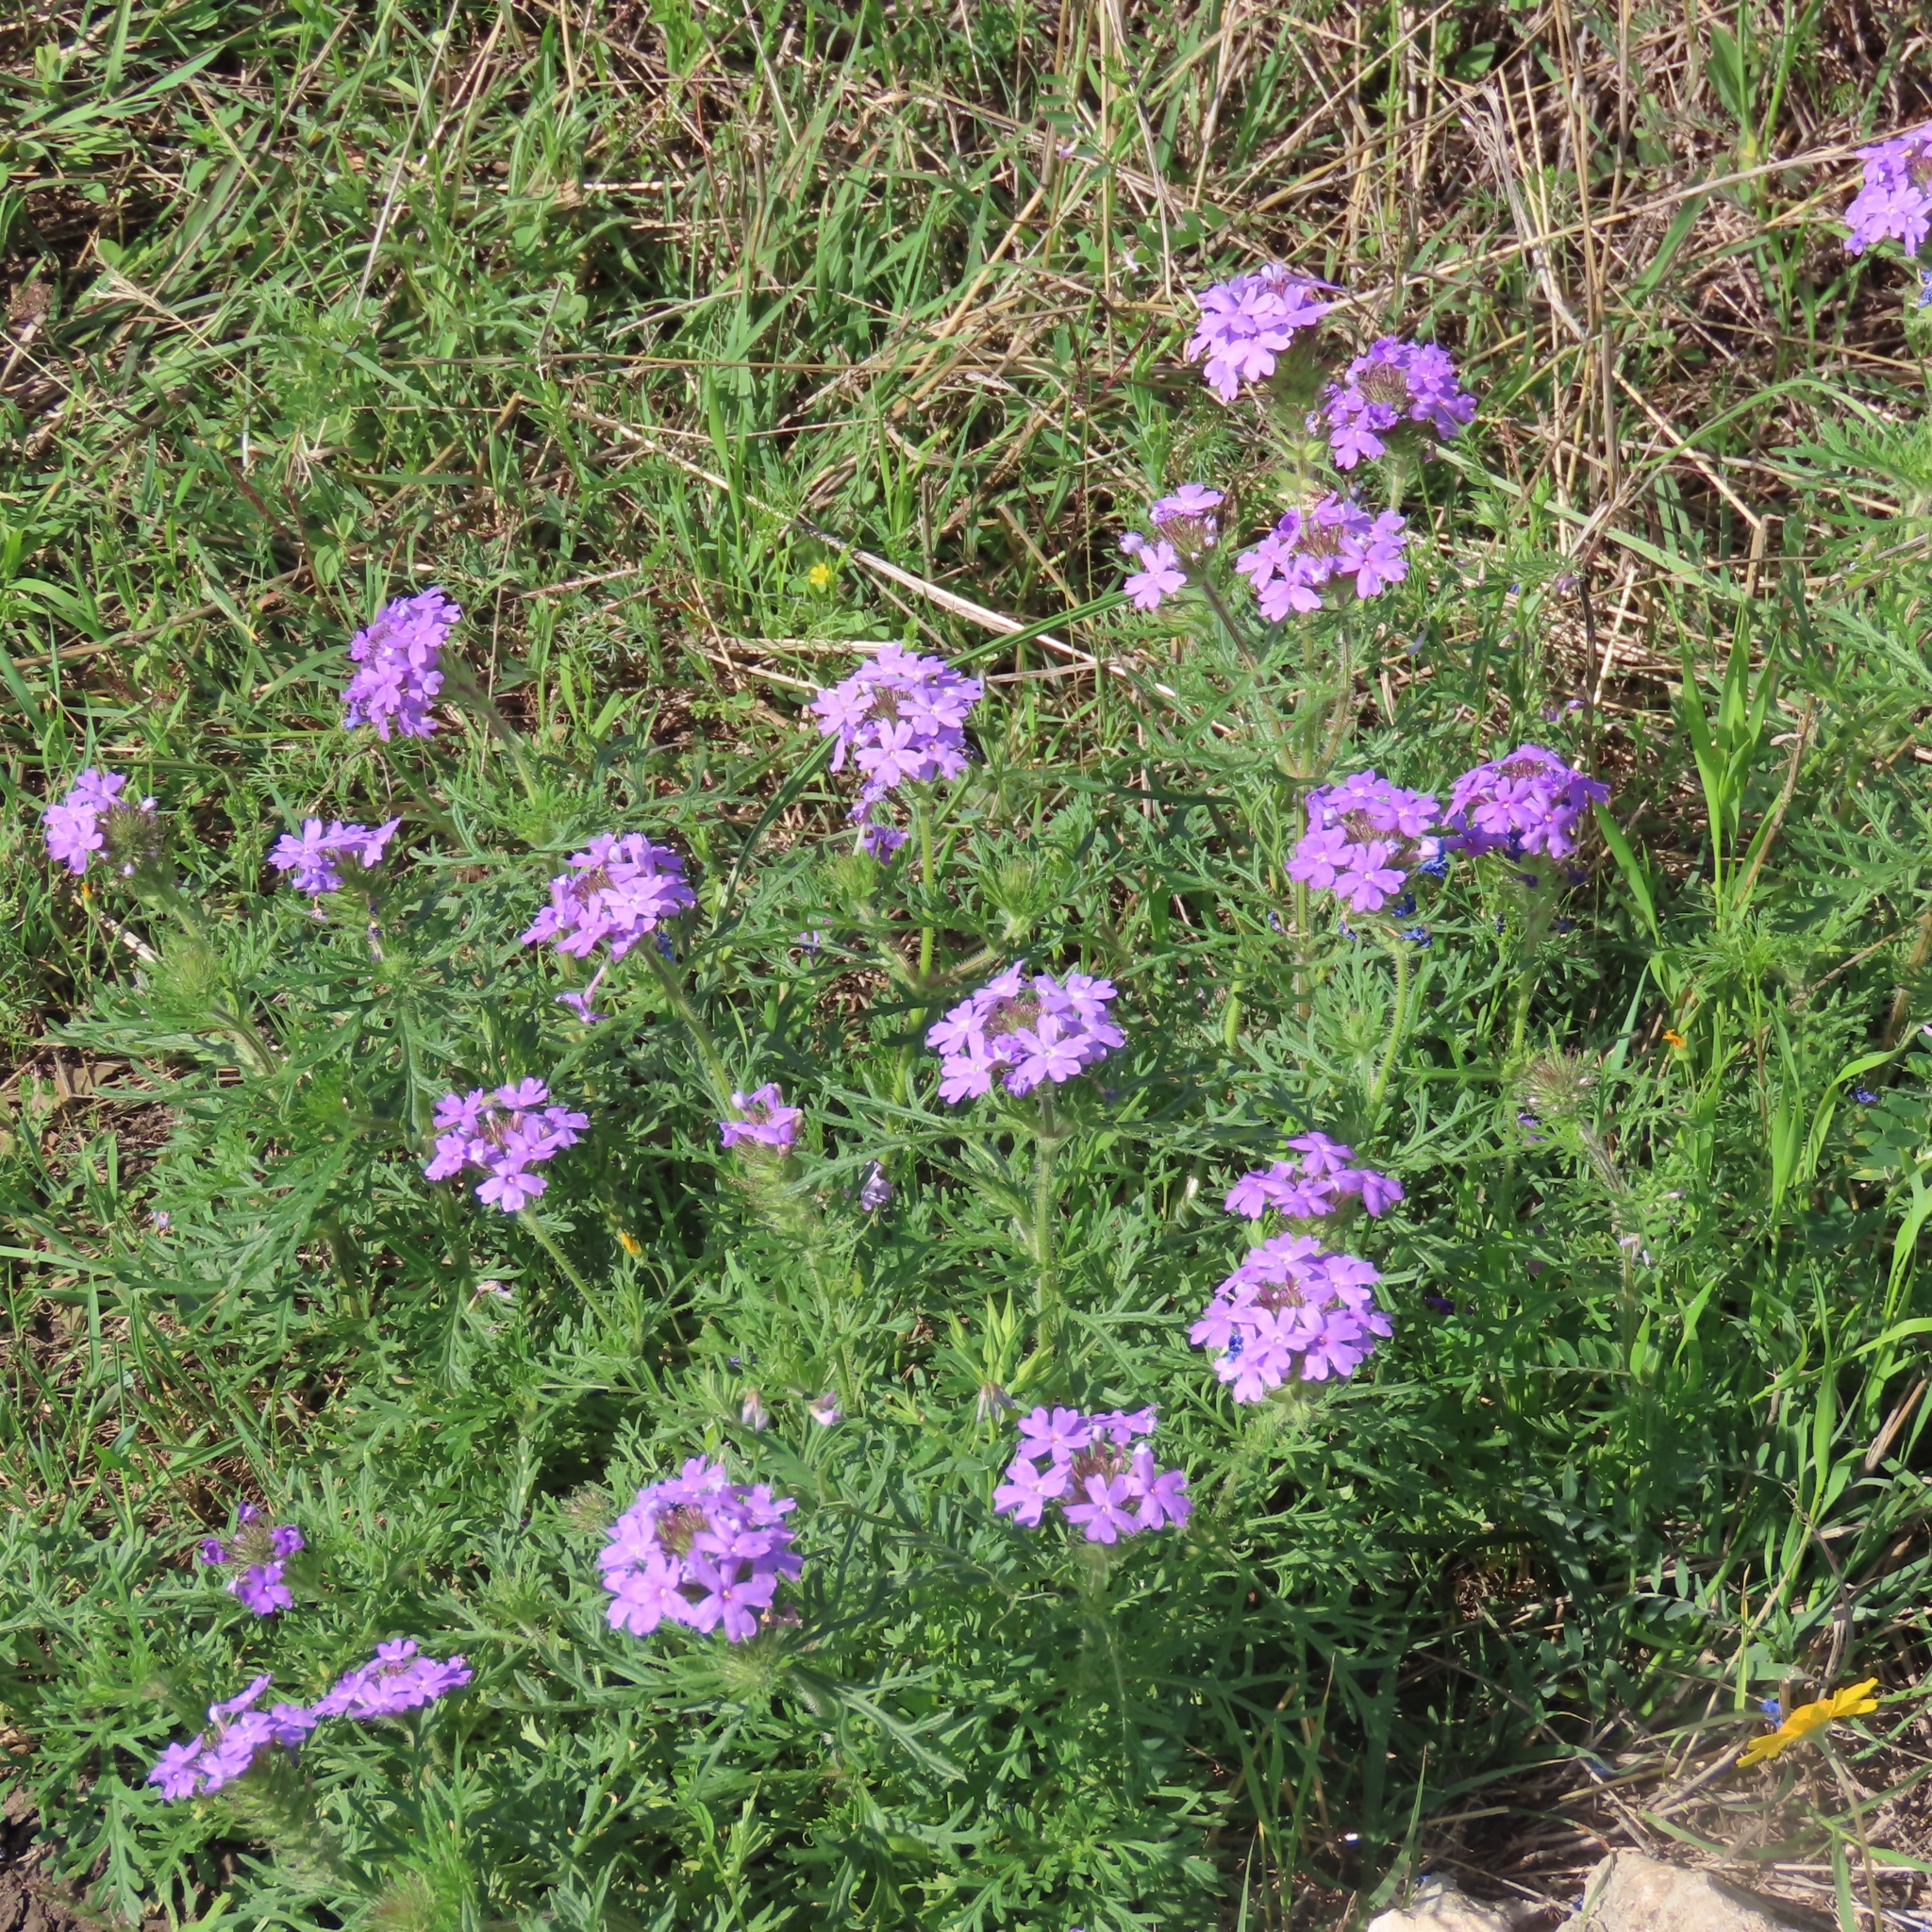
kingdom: Plantae
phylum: Tracheophyta
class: Magnoliopsida
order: Lamiales
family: Verbenaceae
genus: Verbena
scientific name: Verbena bipinnatifida
